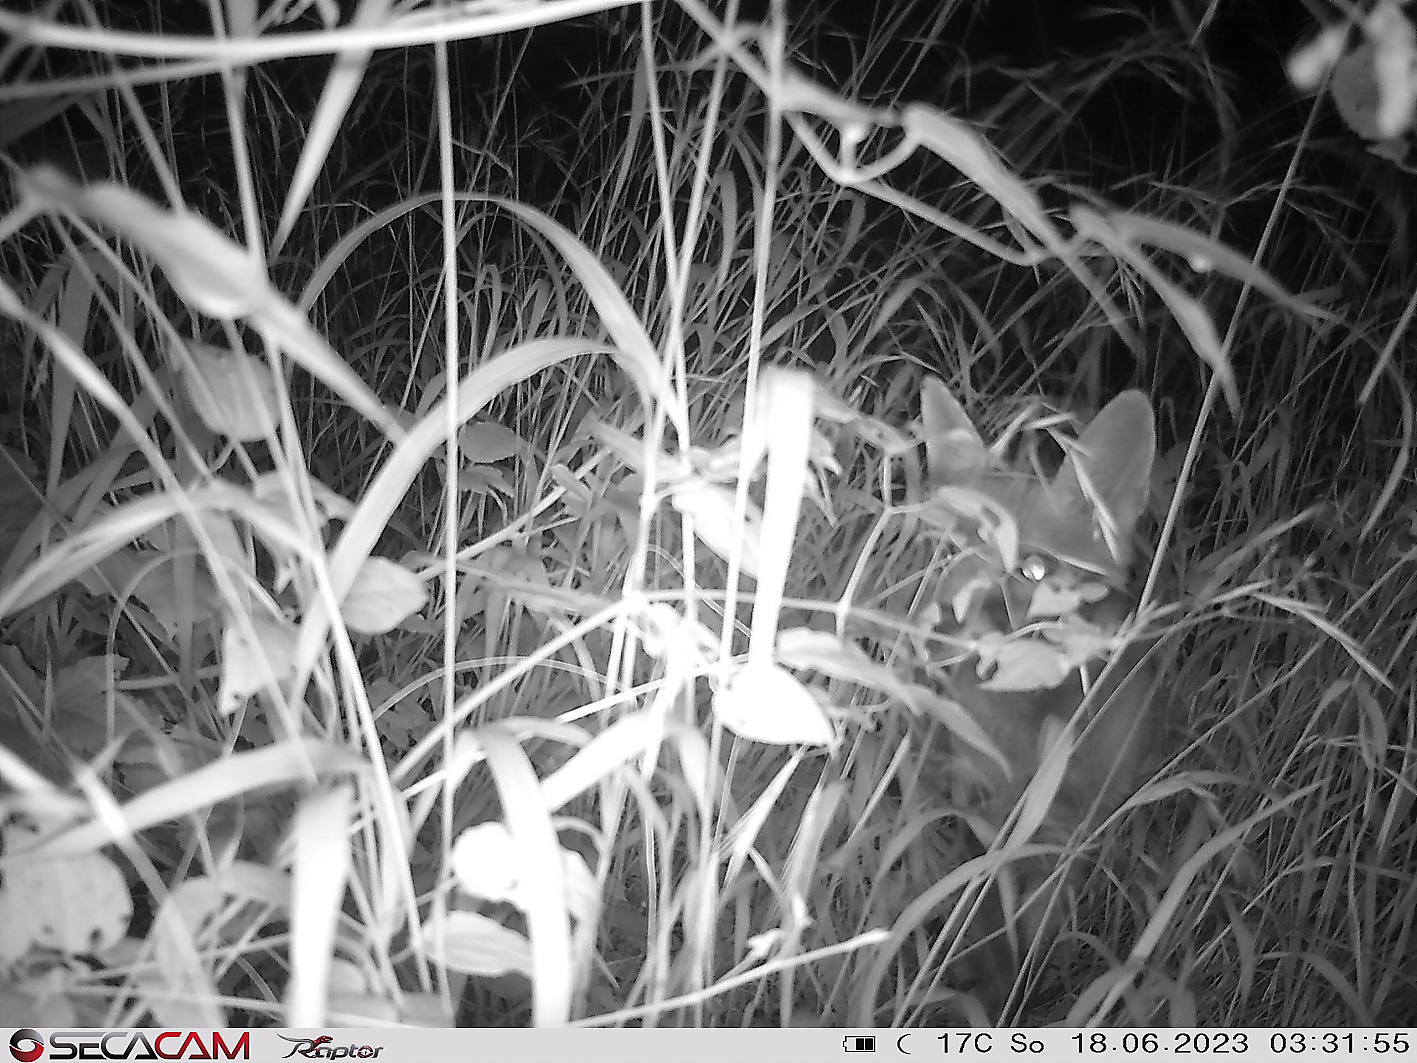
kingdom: Animalia
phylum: Chordata
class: Mammalia
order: Carnivora
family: Canidae
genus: Vulpes
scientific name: Vulpes vulpes
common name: Red fox
